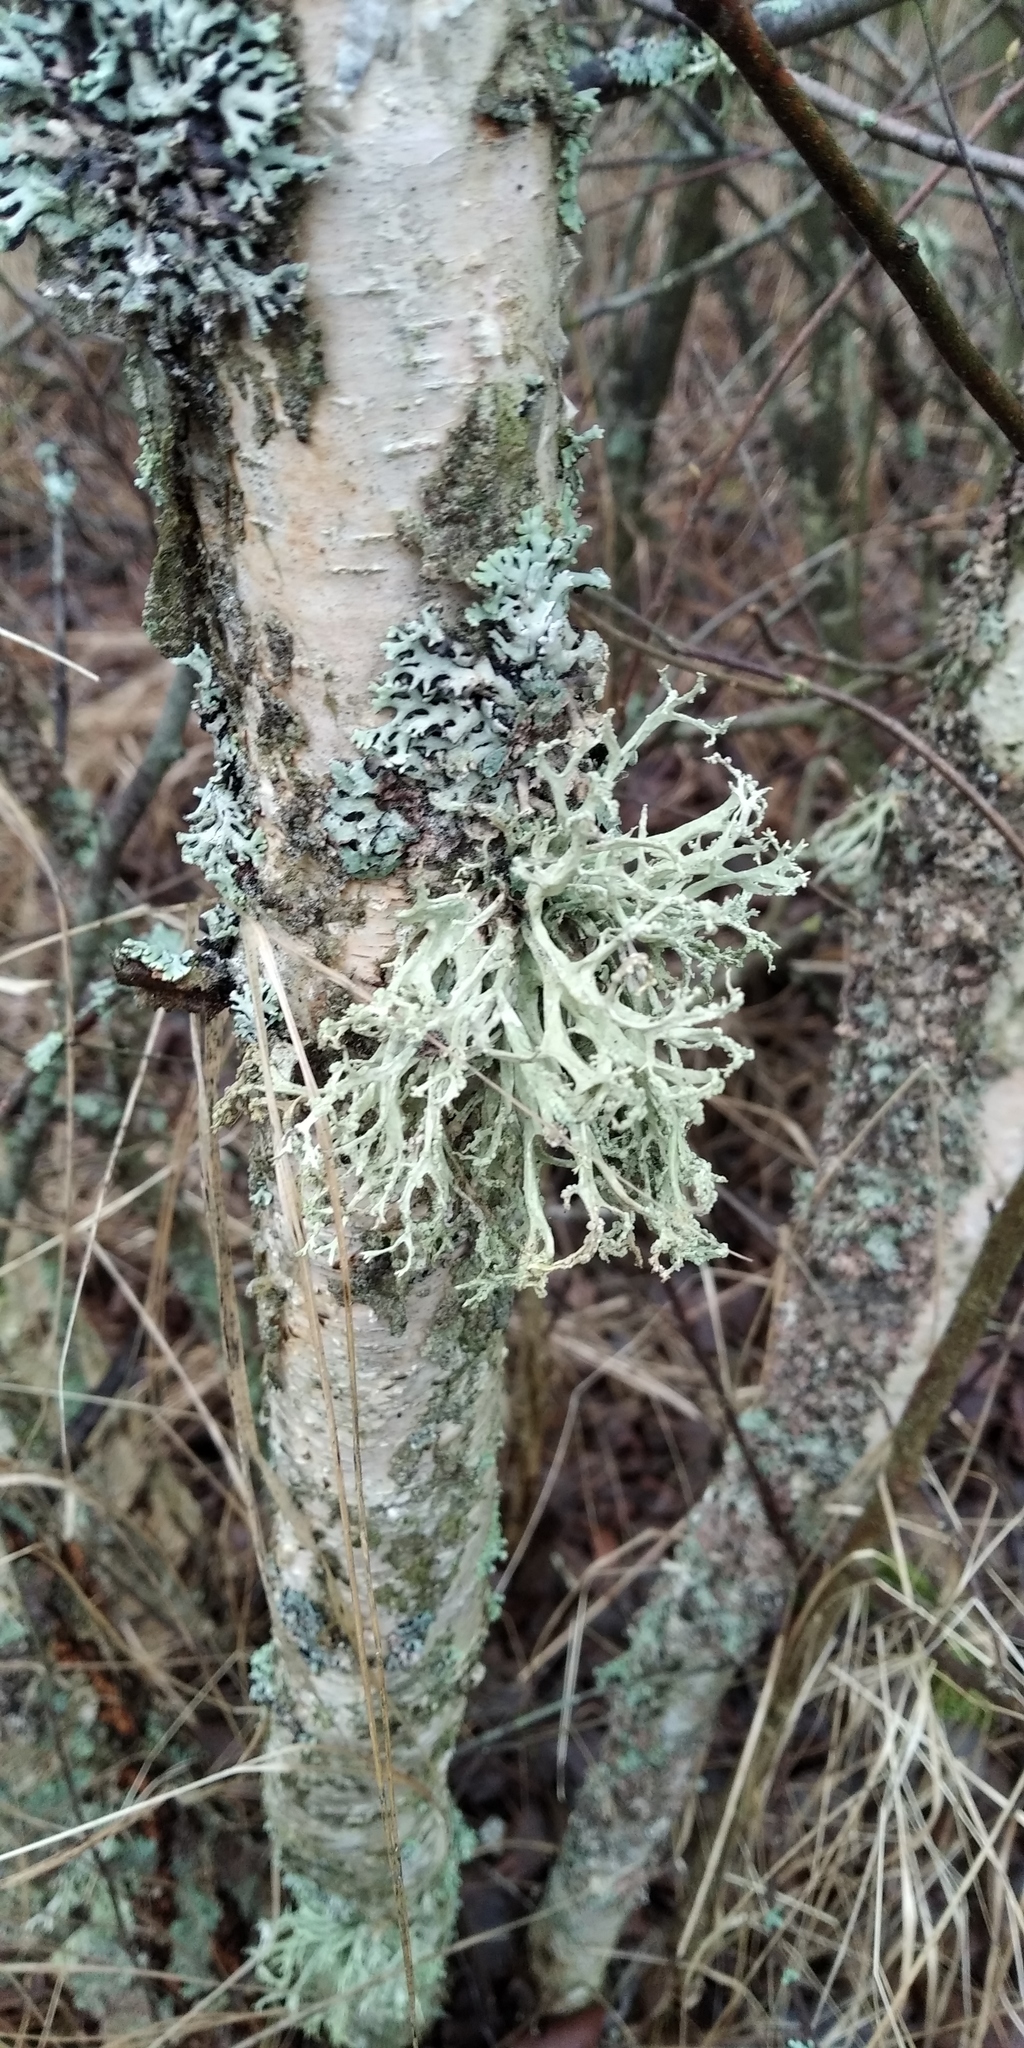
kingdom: Fungi
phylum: Ascomycota
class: Lecanoromycetes
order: Lecanorales
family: Parmeliaceae
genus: Evernia
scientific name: Evernia prunastri
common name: Oak moss
